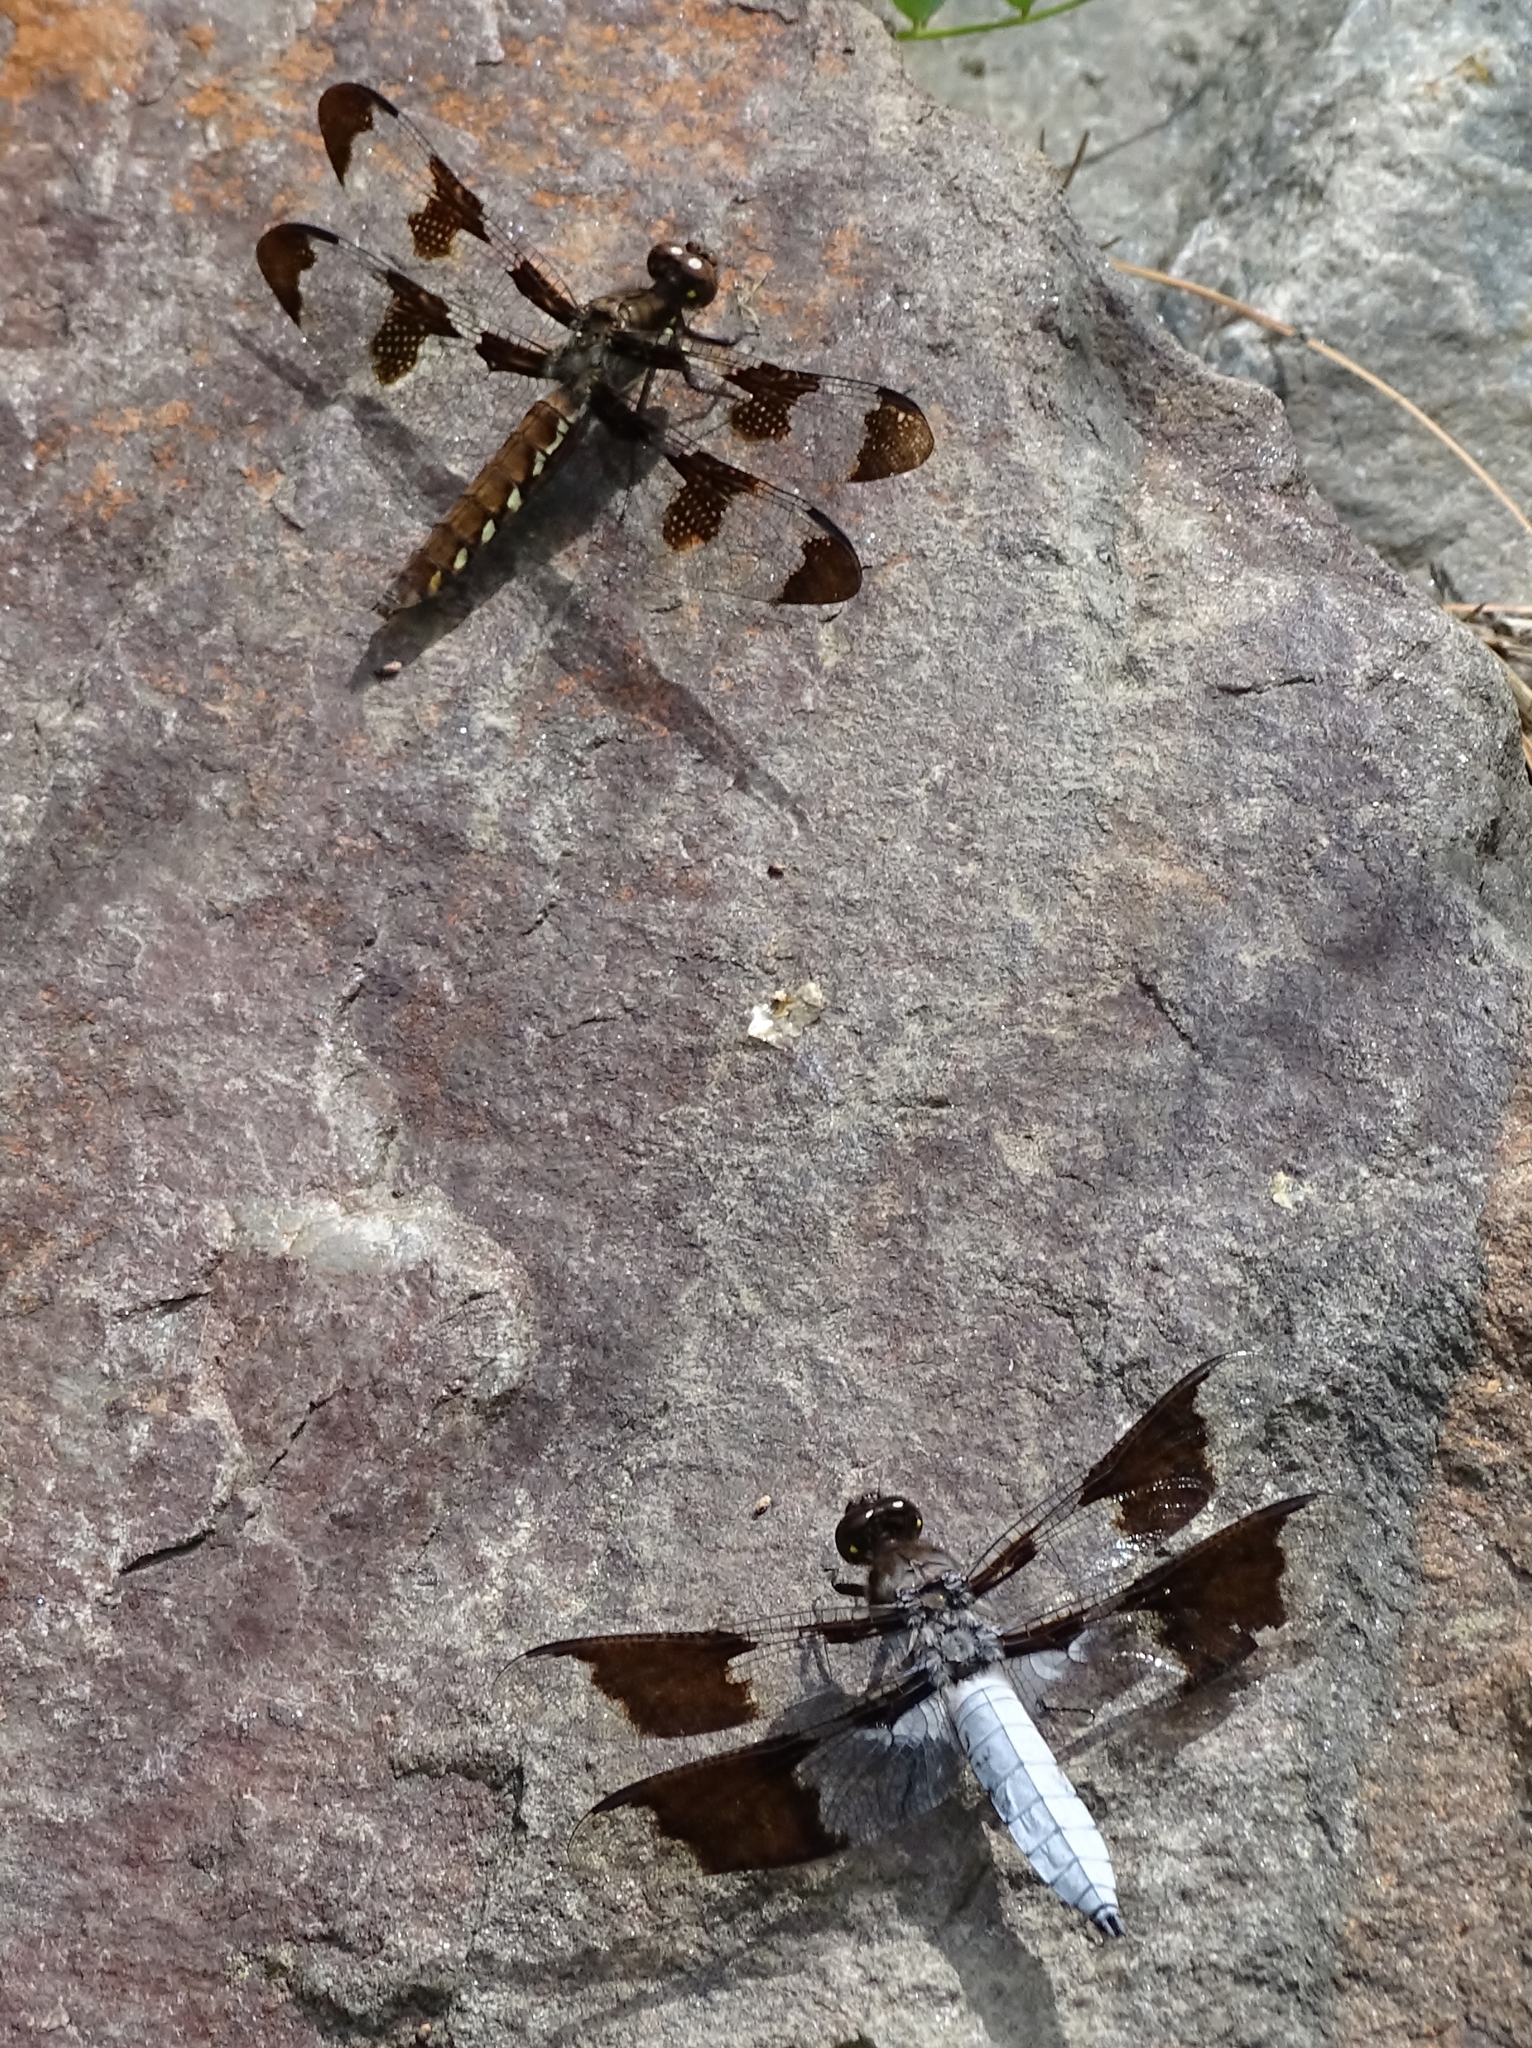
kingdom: Animalia
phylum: Arthropoda
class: Insecta
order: Odonata
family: Libellulidae
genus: Plathemis
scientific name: Plathemis lydia
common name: Common whitetail
